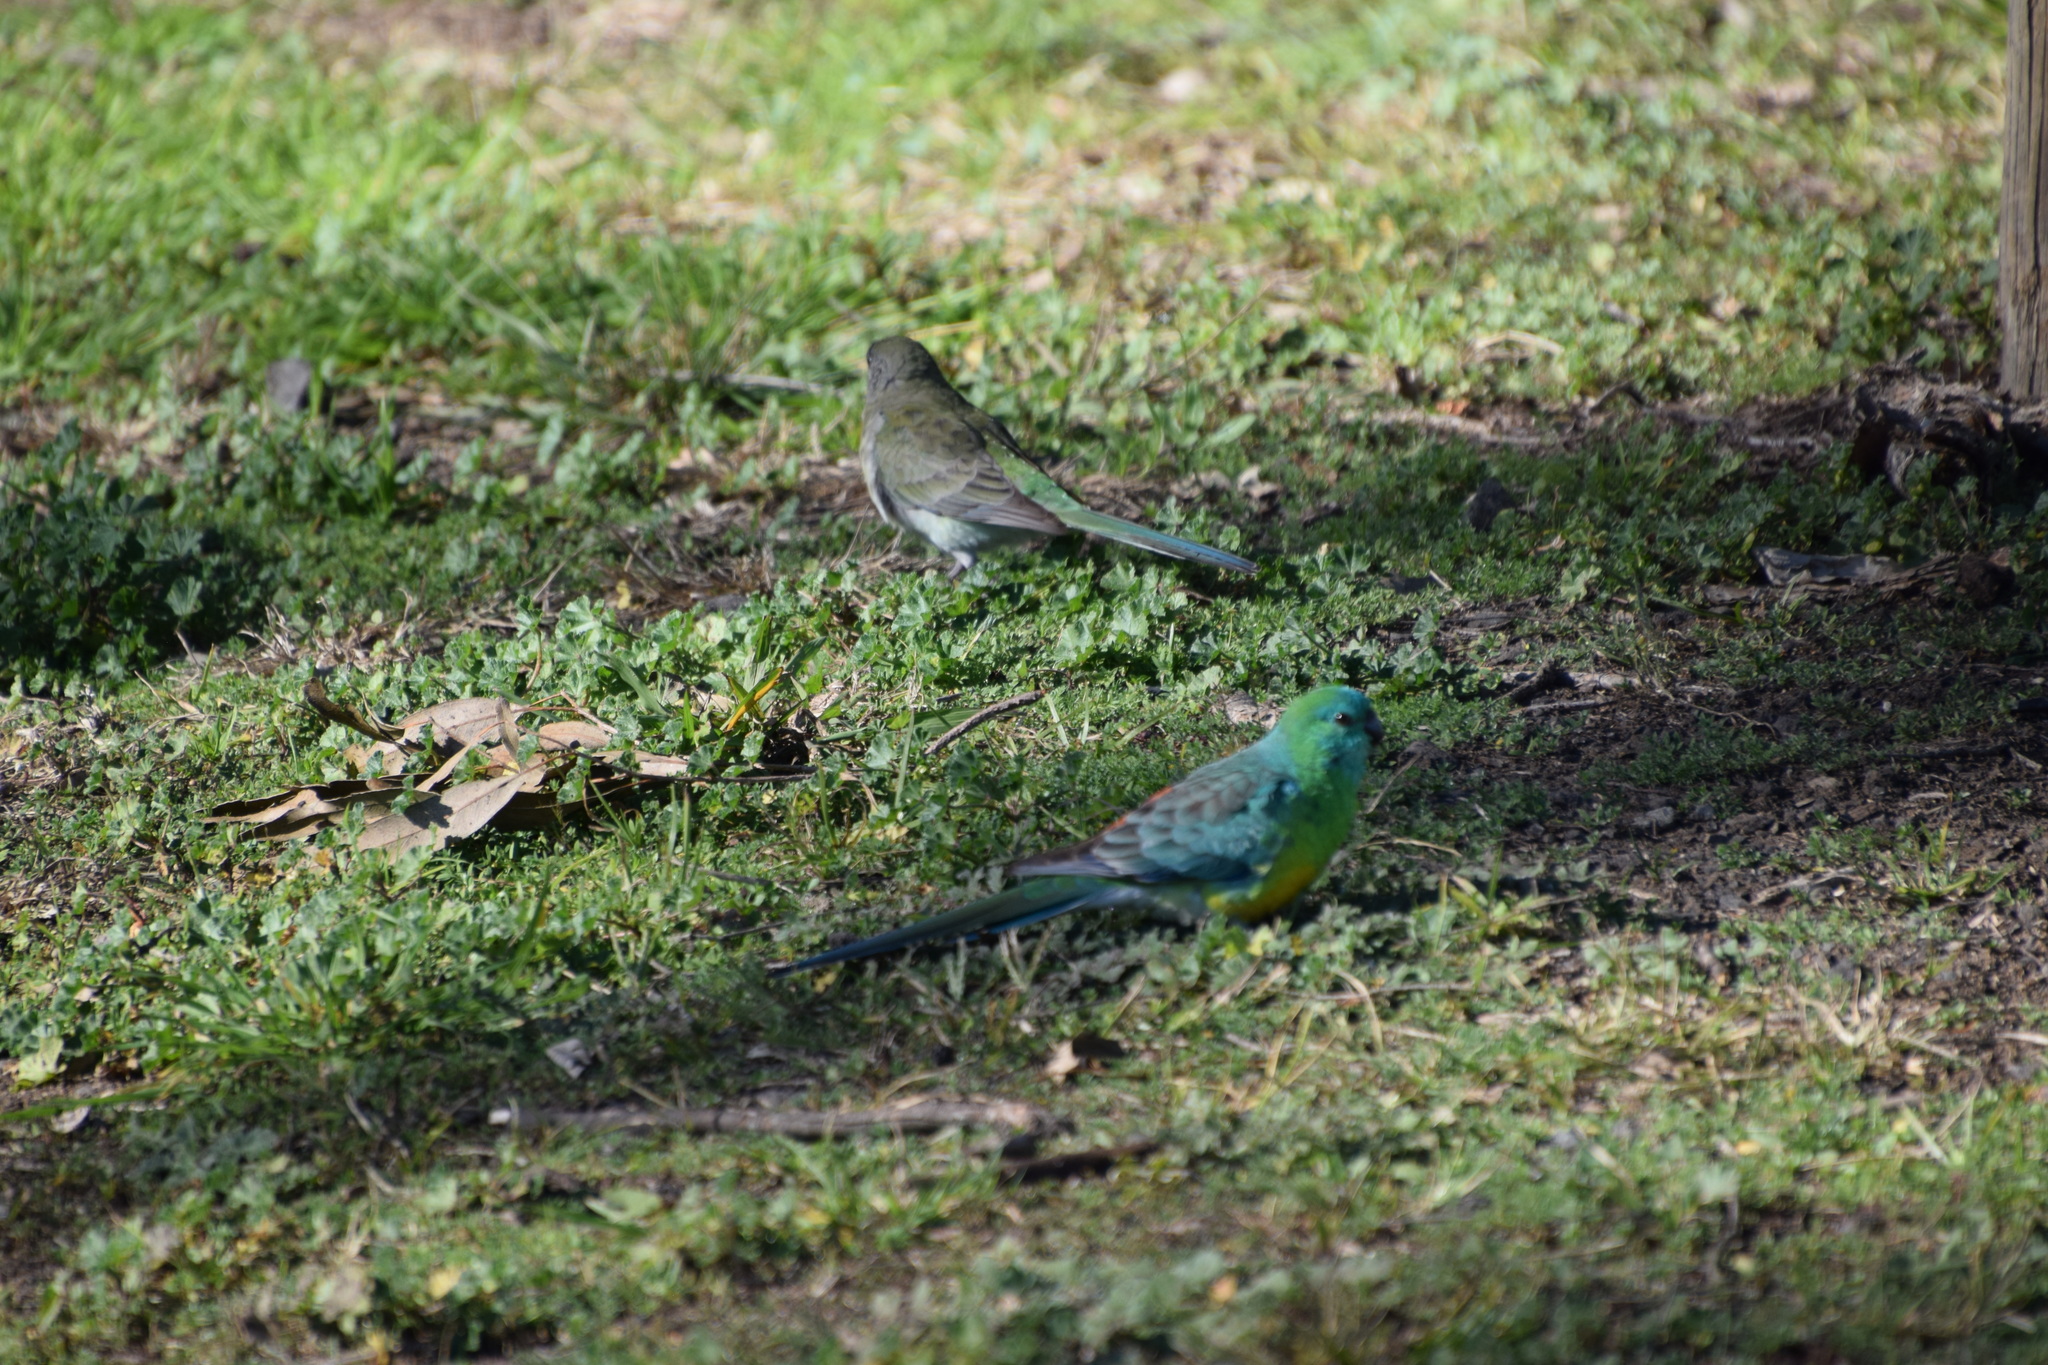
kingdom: Animalia
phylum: Chordata
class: Aves
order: Psittaciformes
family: Psittacidae
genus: Psephotus
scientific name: Psephotus haematonotus
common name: Red-rumped parrot
